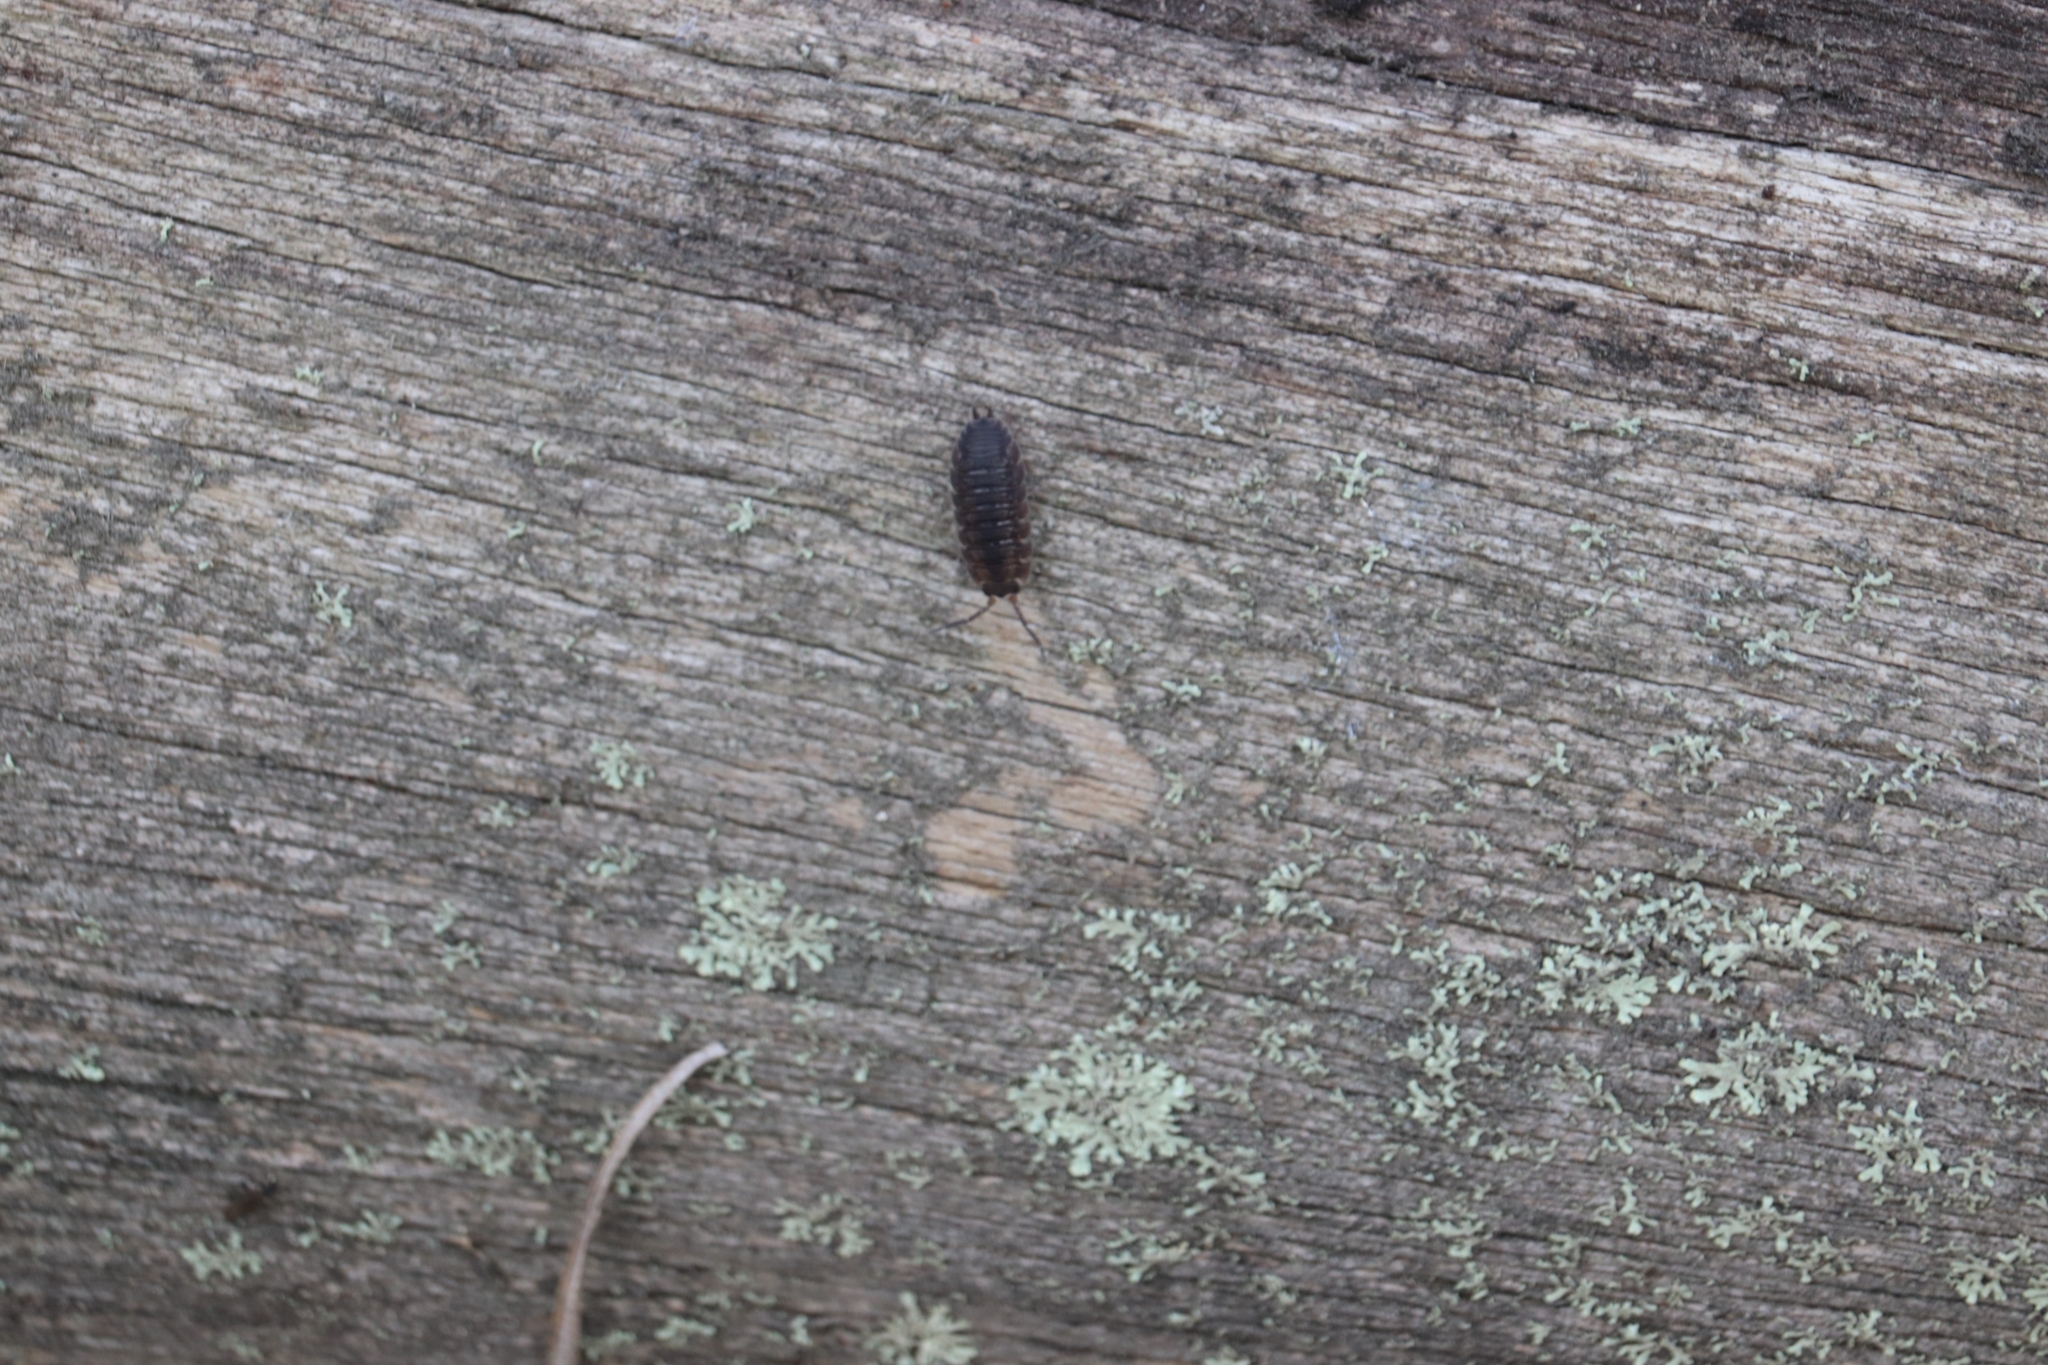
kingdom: Animalia
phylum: Arthropoda
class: Malacostraca
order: Isopoda
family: Porcellionidae
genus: Porcellio
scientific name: Porcellio scaber
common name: Common rough woodlouse
